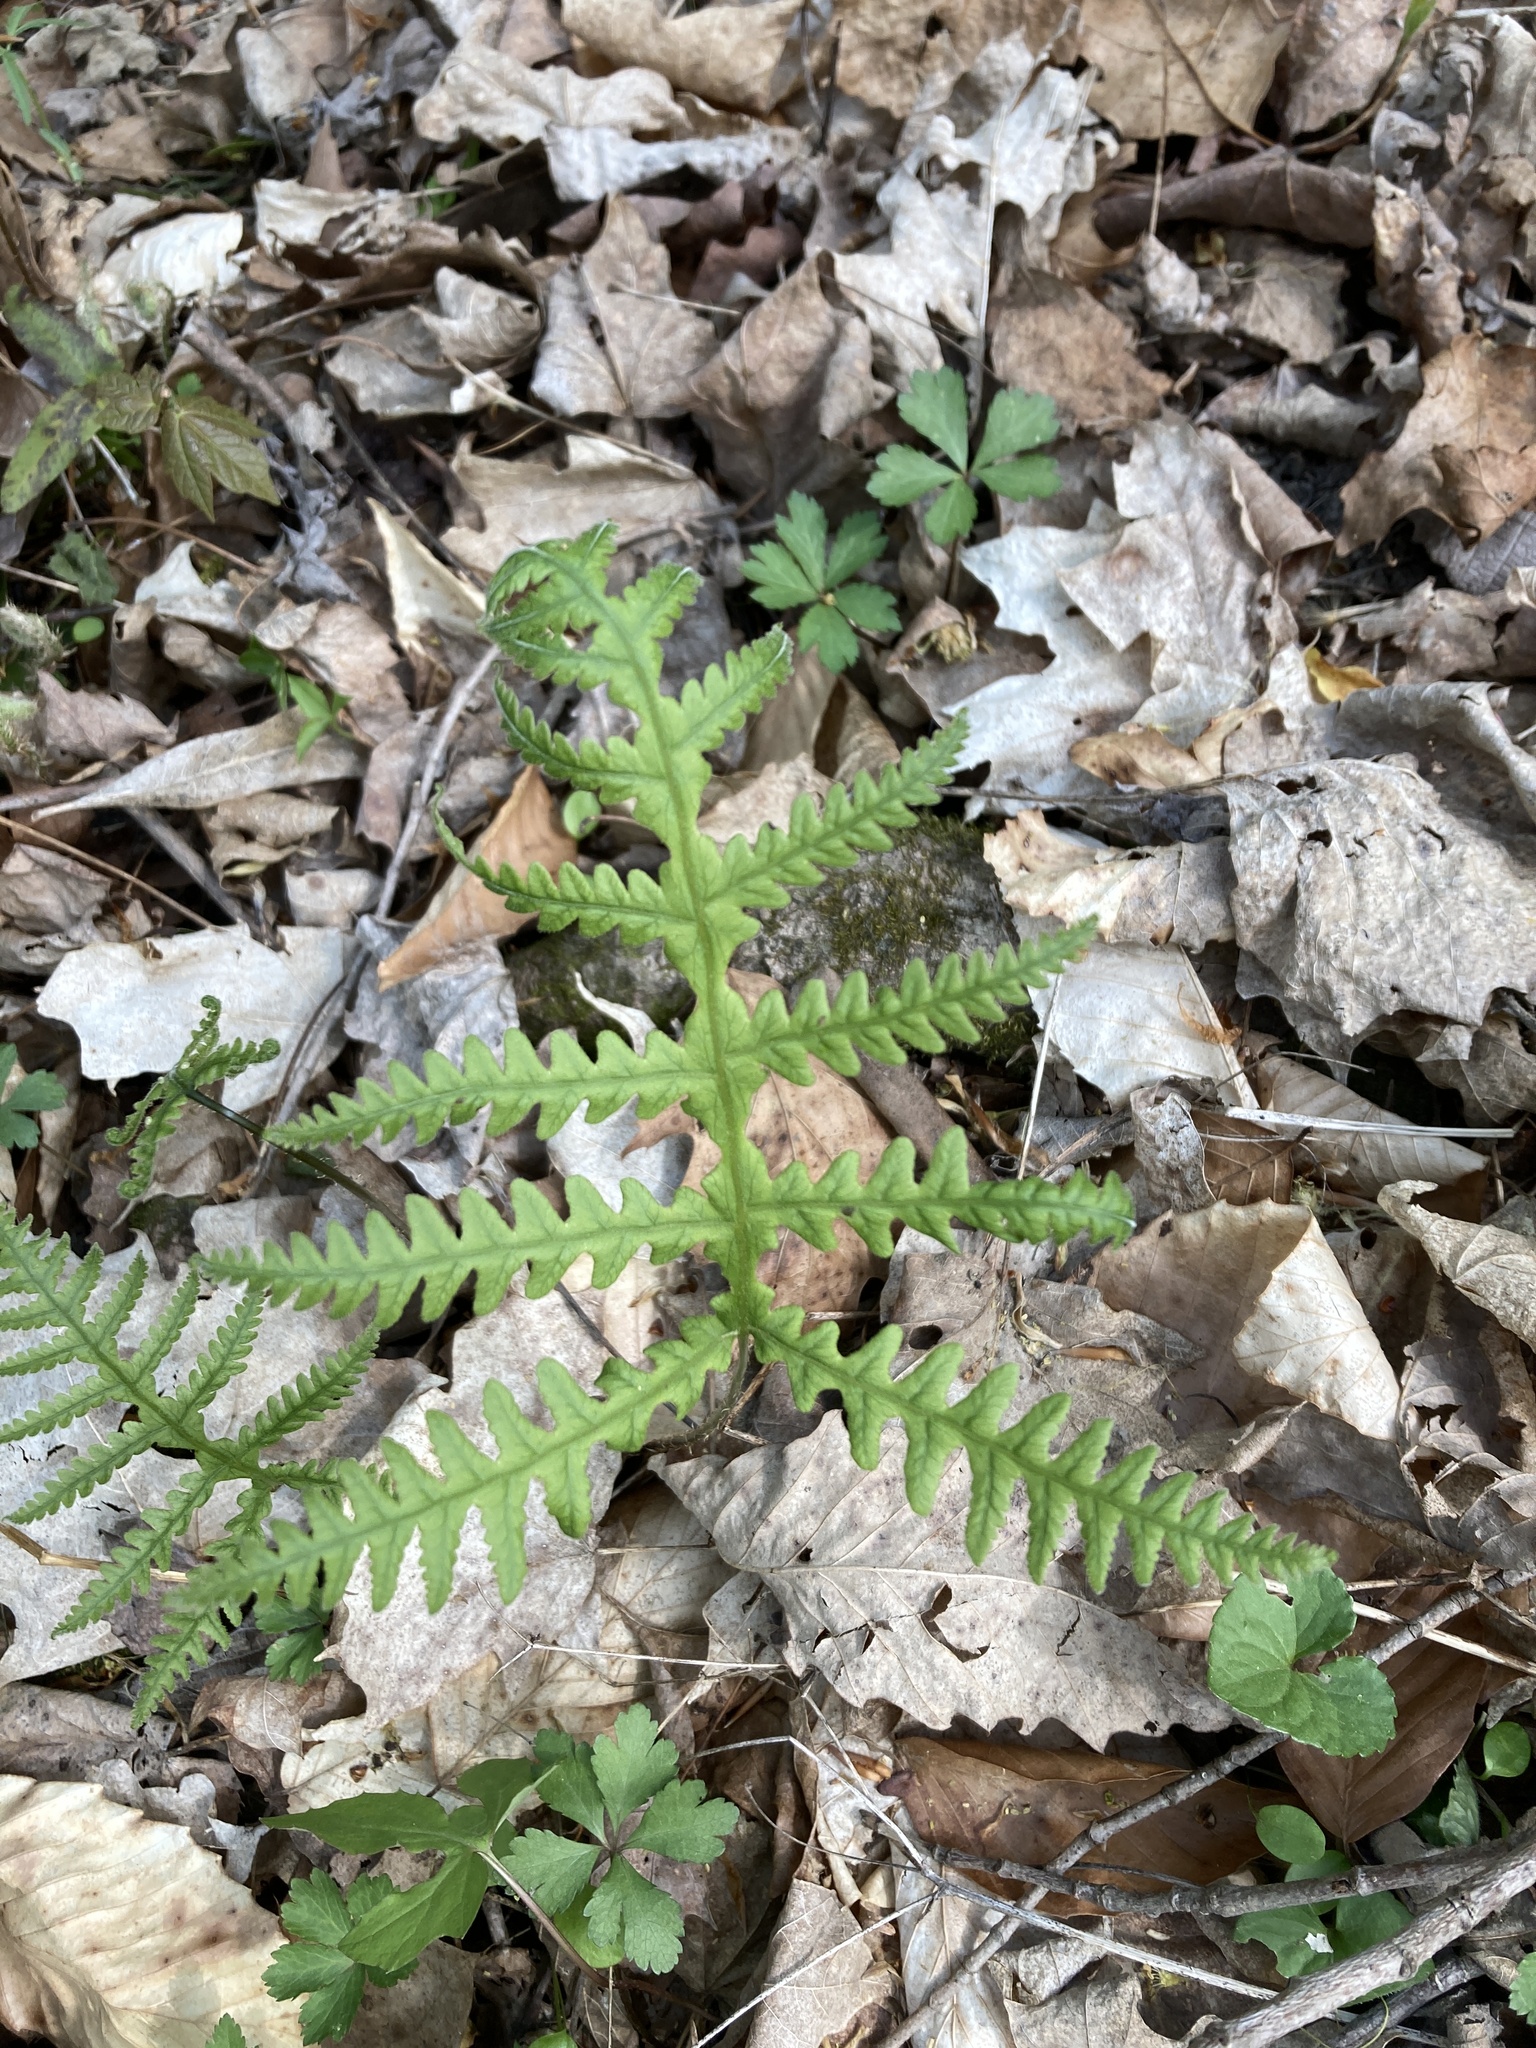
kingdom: Plantae
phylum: Tracheophyta
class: Polypodiopsida
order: Polypodiales
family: Thelypteridaceae
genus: Phegopteris
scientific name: Phegopteris hexagonoptera
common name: Broad beech fern
